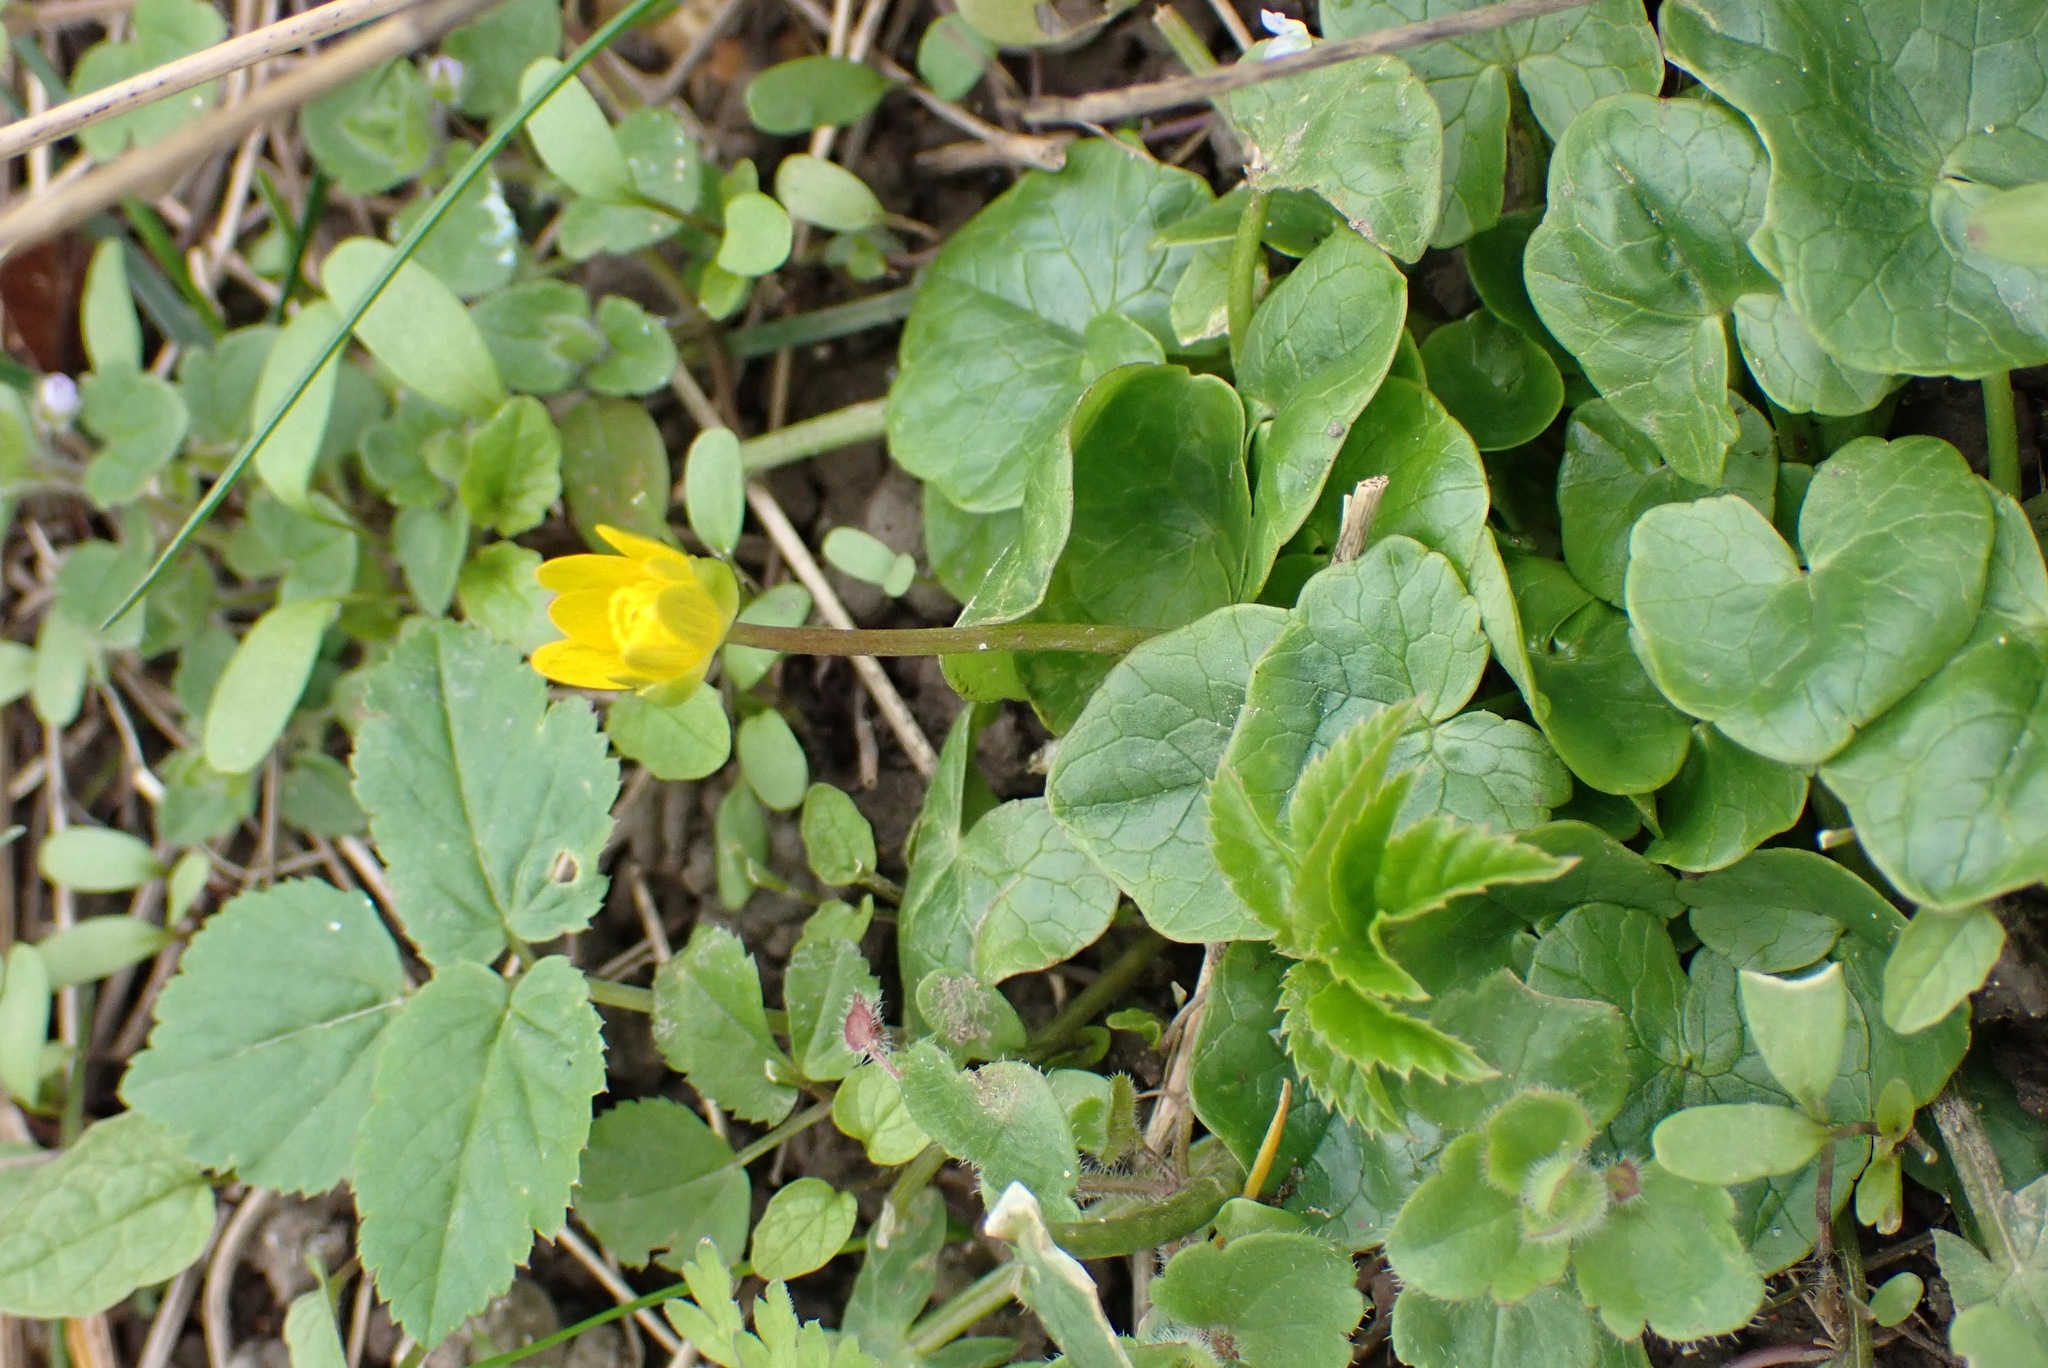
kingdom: Plantae
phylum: Tracheophyta
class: Magnoliopsida
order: Ranunculales
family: Ranunculaceae
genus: Ficaria
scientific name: Ficaria verna
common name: Lesser celandine
